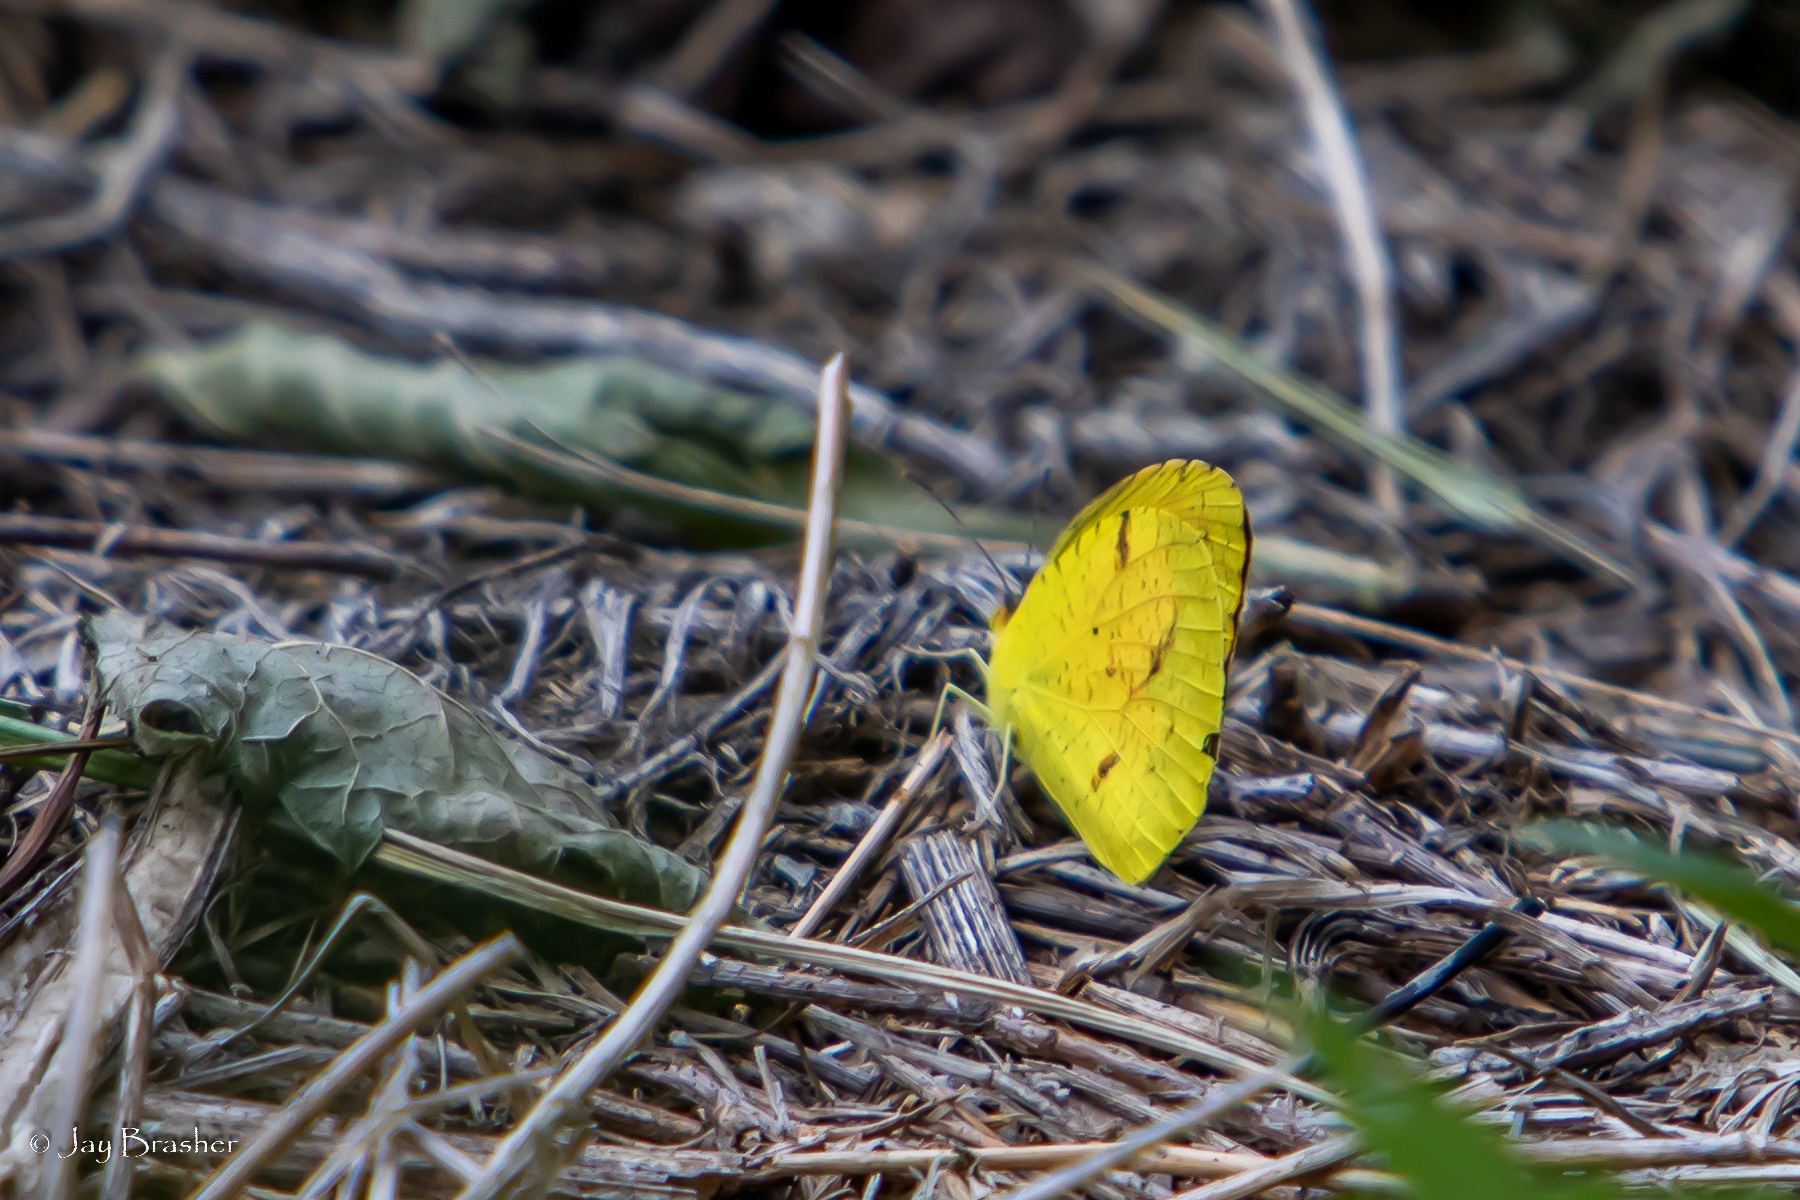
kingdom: Animalia
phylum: Arthropoda
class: Insecta
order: Lepidoptera
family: Pieridae
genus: Abaeis
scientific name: Abaeis nicippe
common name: Sleepy orange
